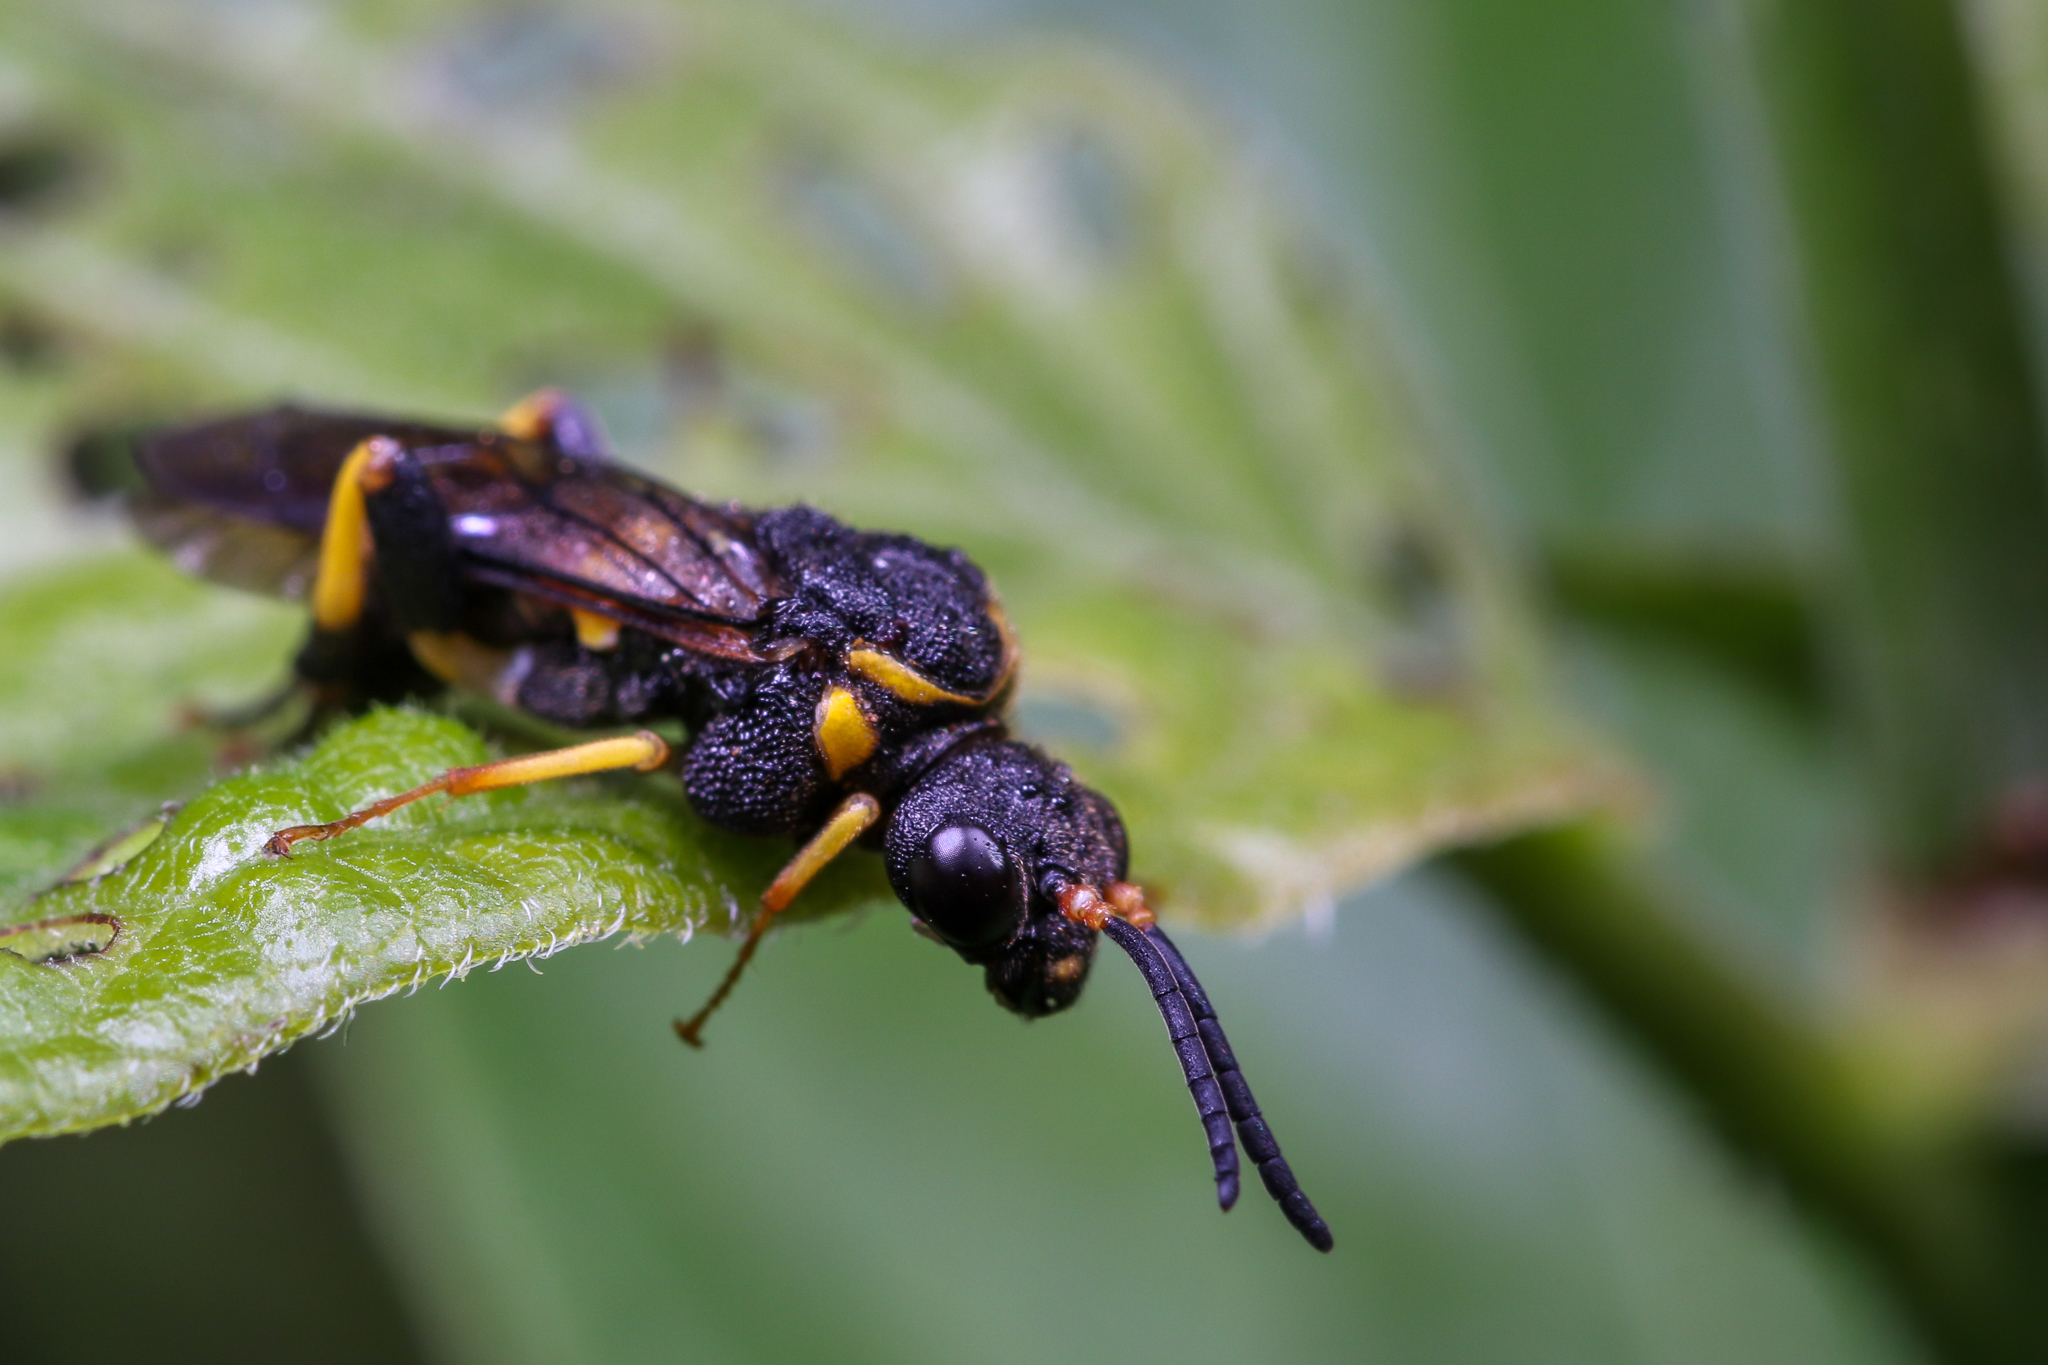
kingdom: Animalia
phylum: Arthropoda
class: Insecta
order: Hymenoptera
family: Tenthredinidae
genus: Pseudosiobla
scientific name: Pseudosiobla
